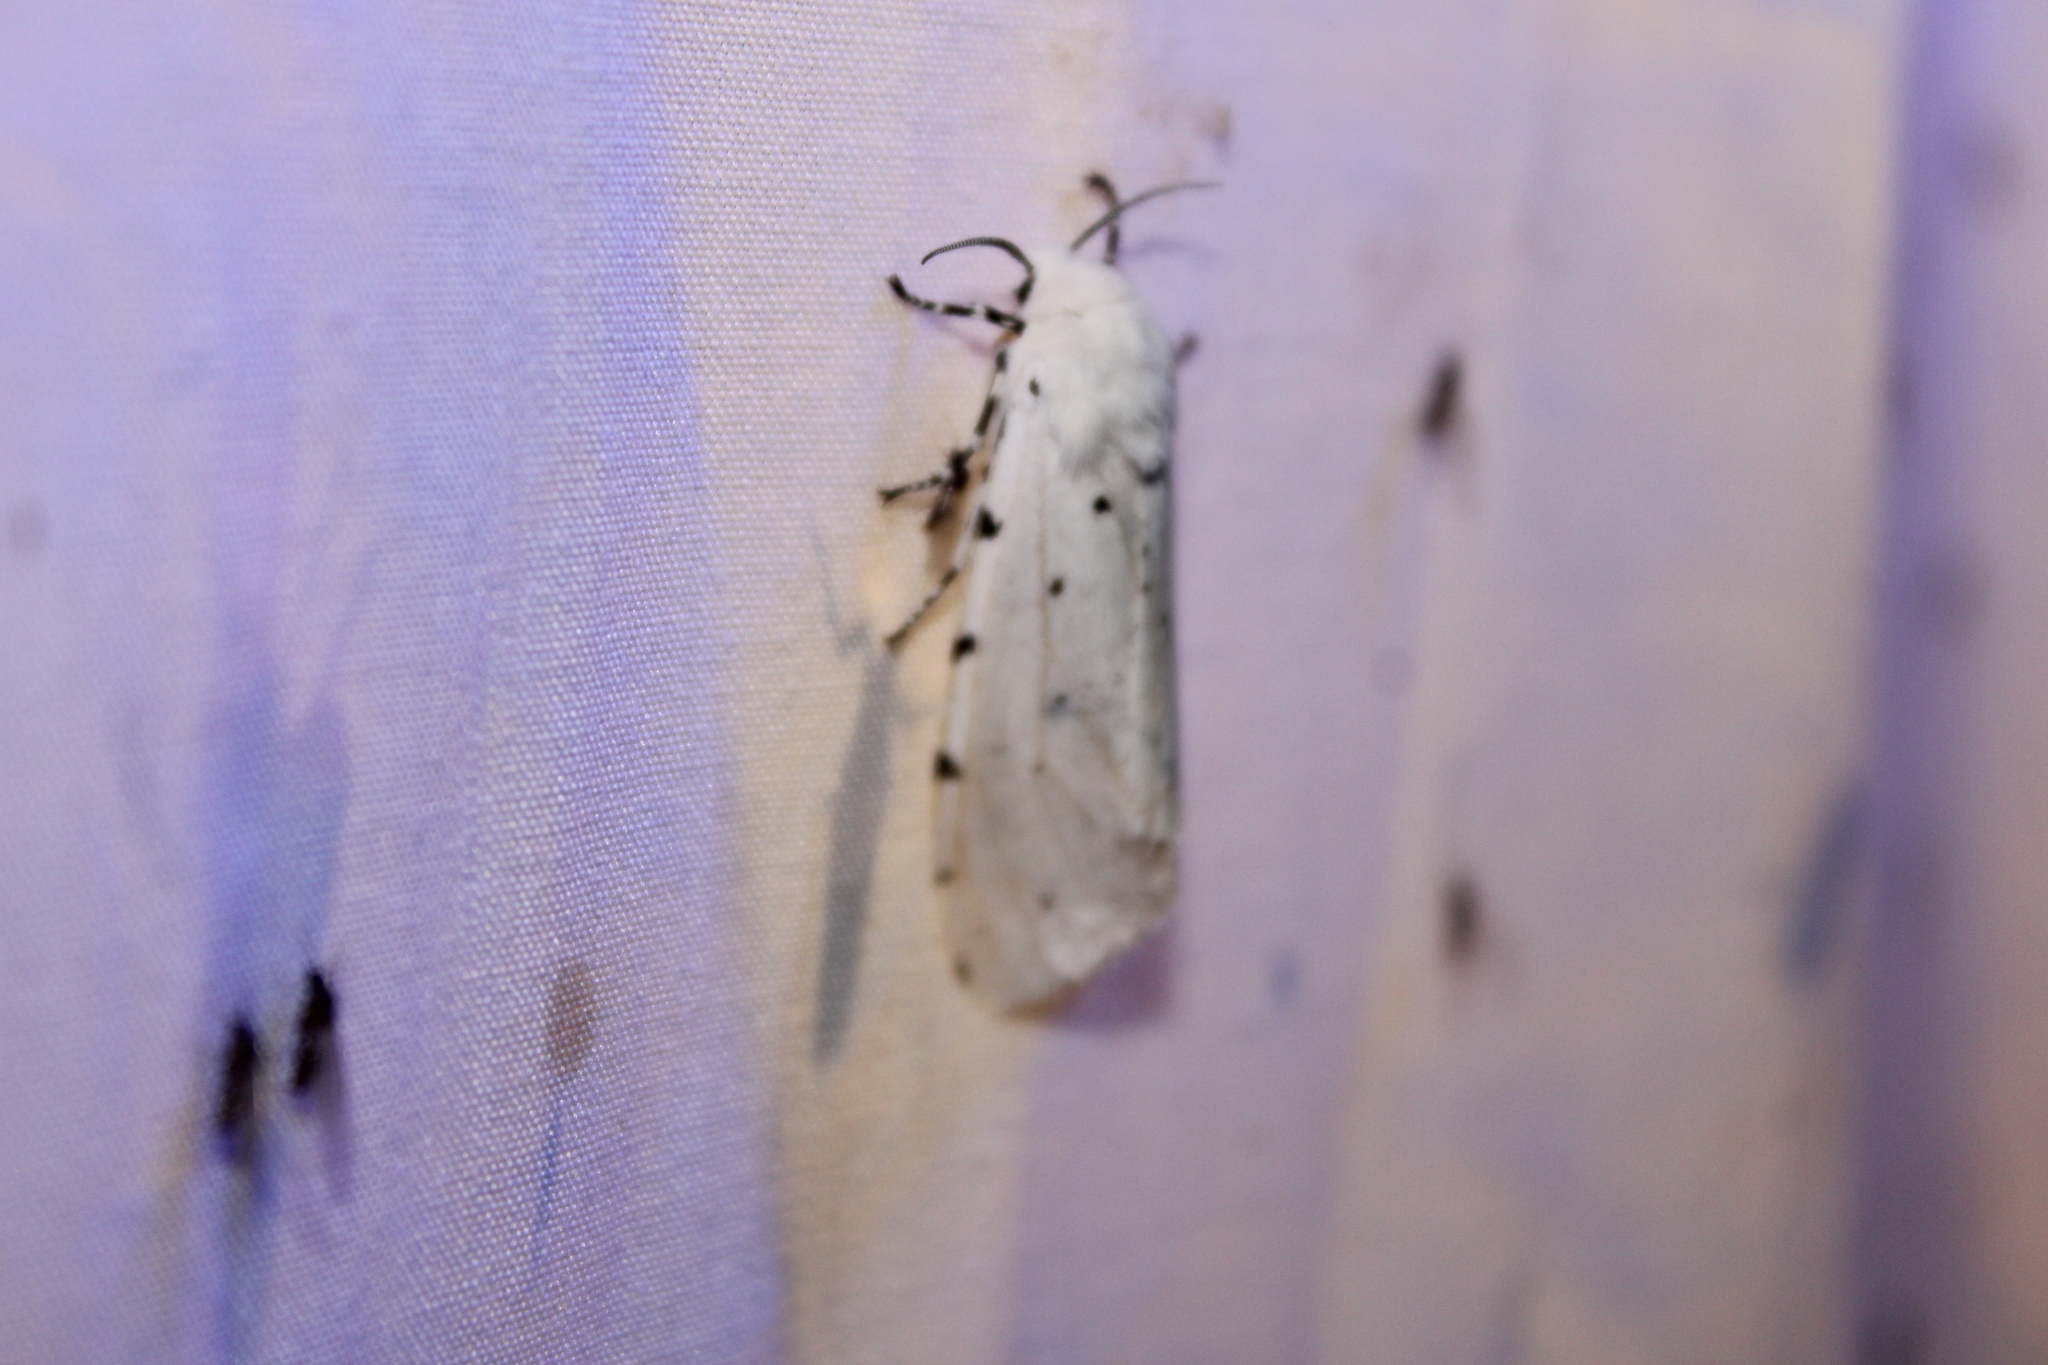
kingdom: Animalia
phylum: Arthropoda
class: Insecta
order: Lepidoptera
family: Erebidae
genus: Estigmene
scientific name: Estigmene acrea
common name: Salt marsh moth
